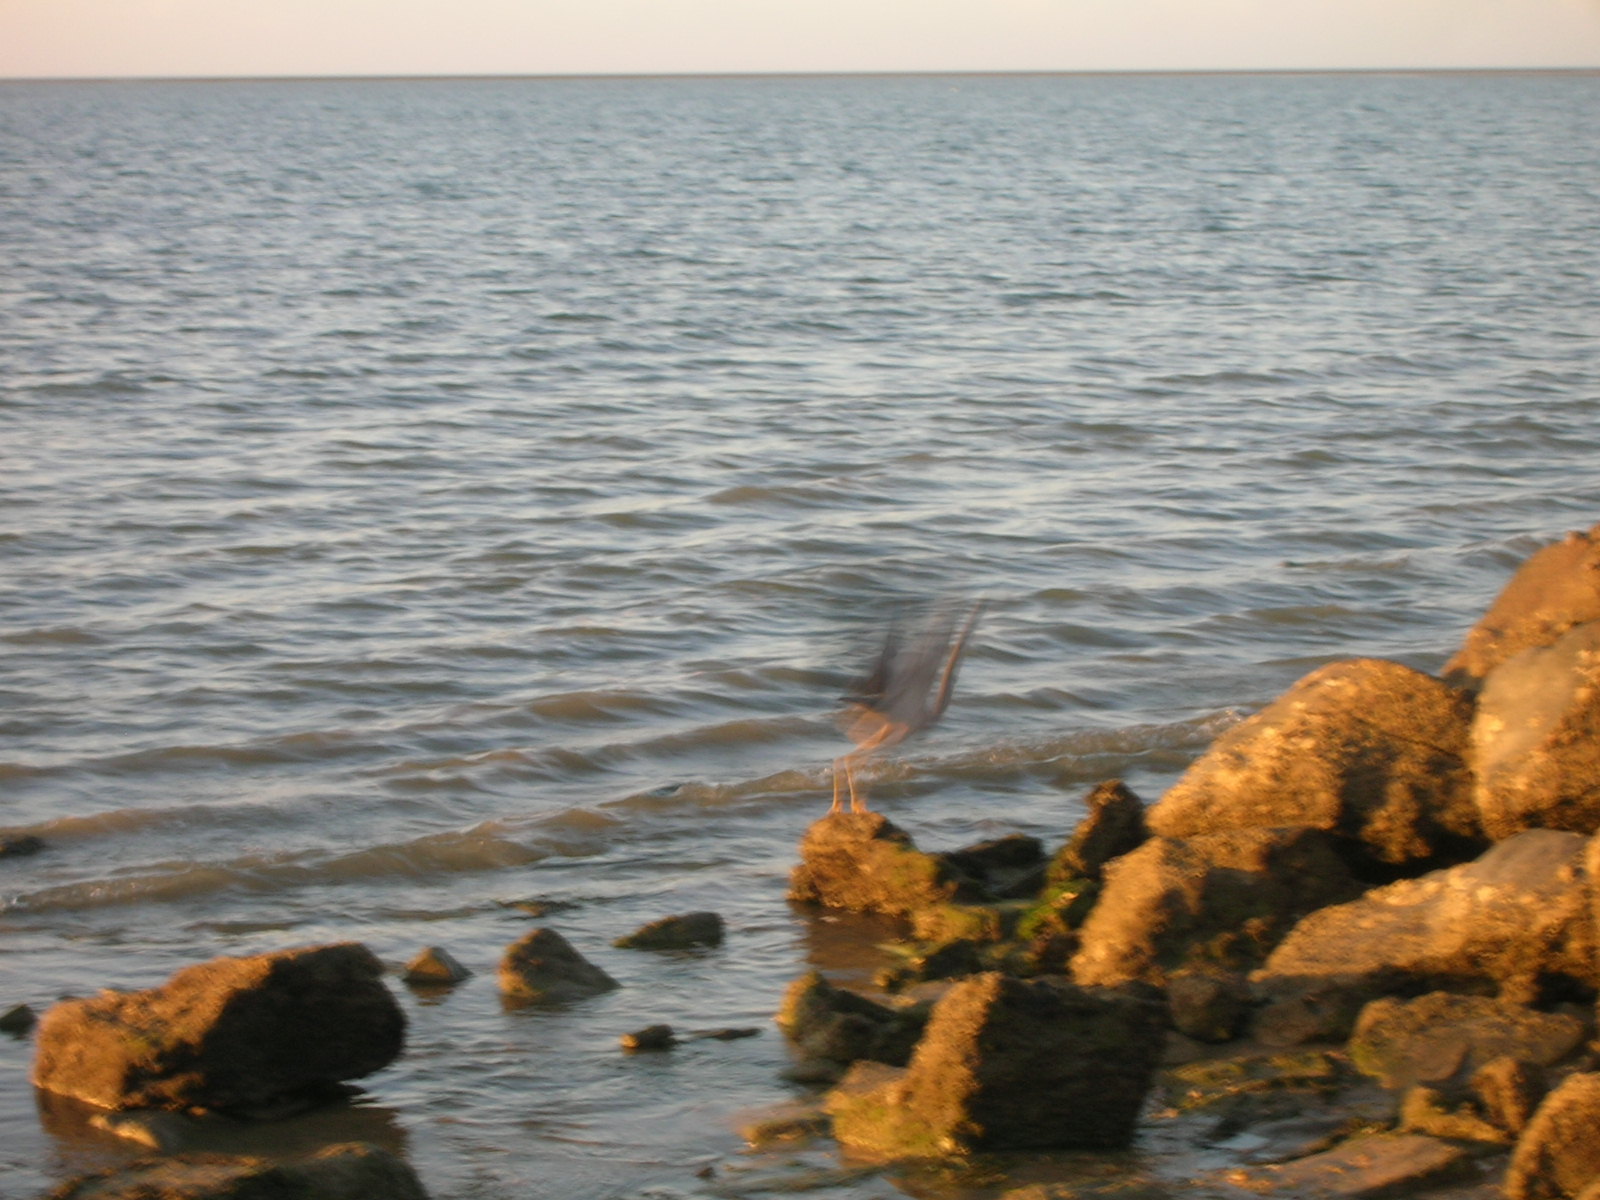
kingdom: Animalia
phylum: Chordata
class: Aves
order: Pelecaniformes
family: Ardeidae
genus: Egretta
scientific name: Egretta novaehollandiae
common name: White-faced heron
